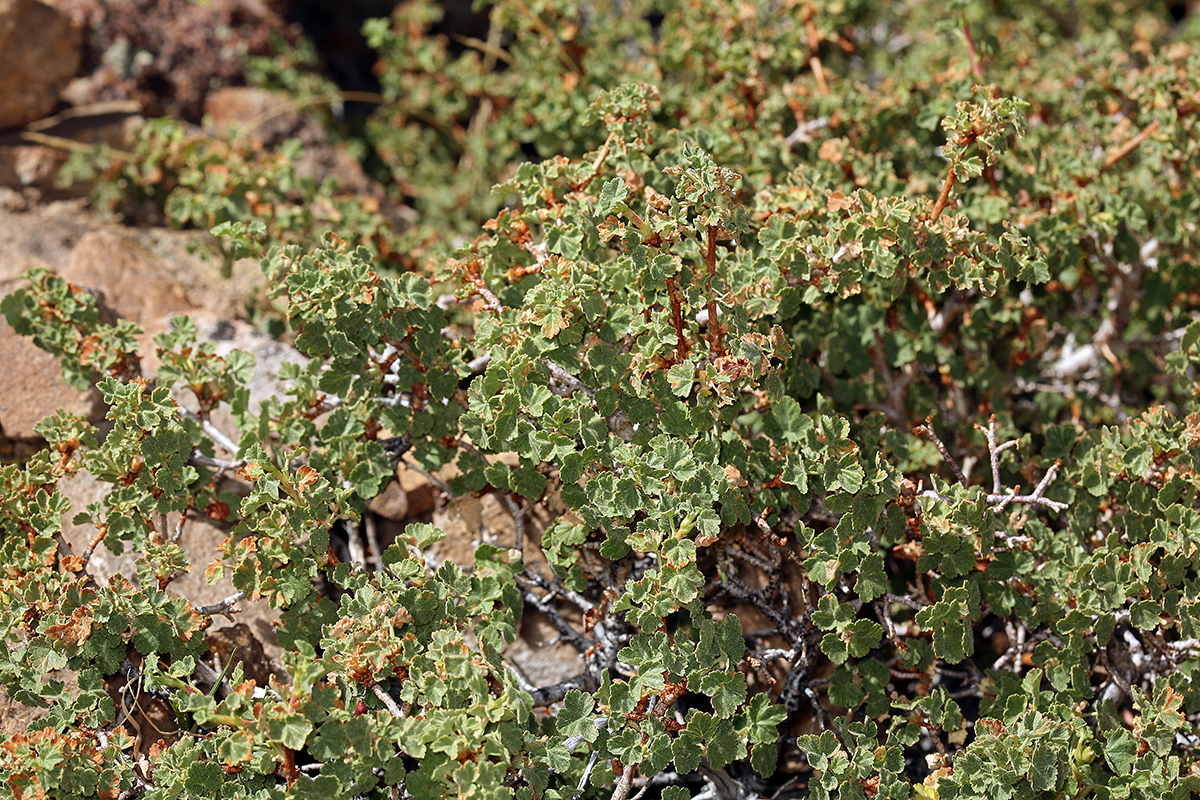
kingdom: Plantae
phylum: Tracheophyta
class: Magnoliopsida
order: Saxifragales
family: Grossulariaceae
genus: Ribes
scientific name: Ribes cereum
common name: Wax currant
